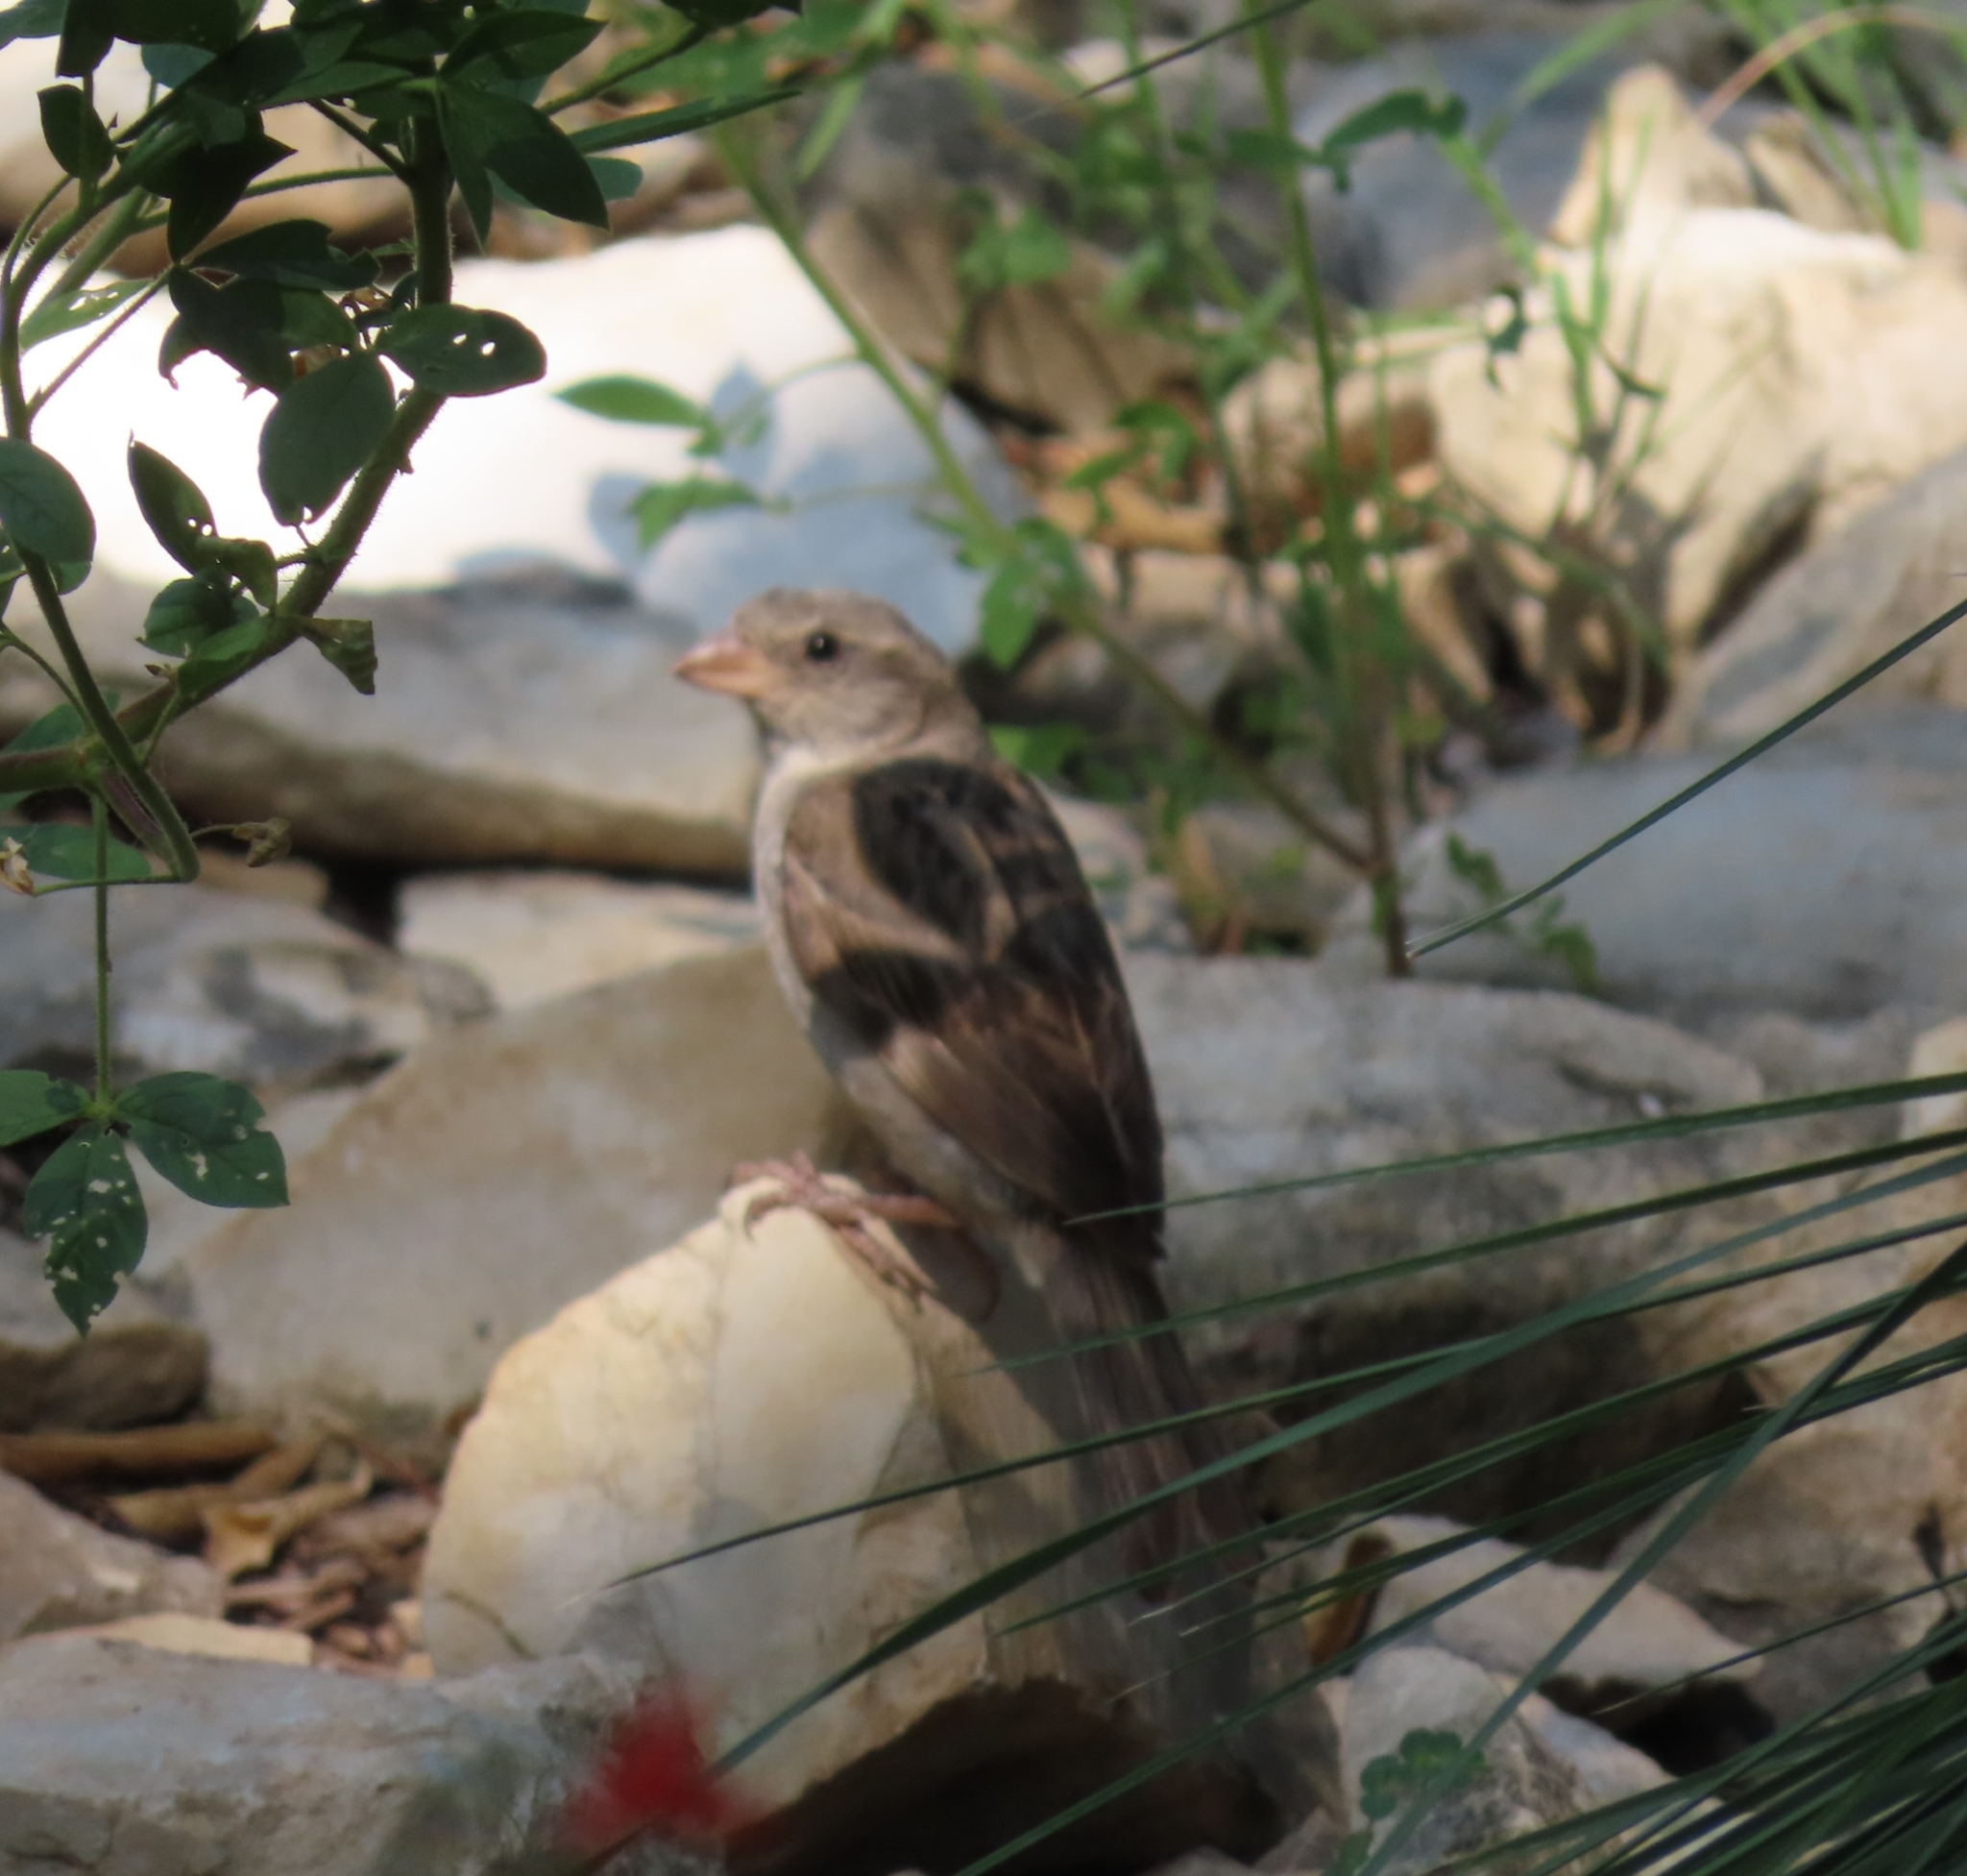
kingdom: Animalia
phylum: Chordata
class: Aves
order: Passeriformes
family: Passeridae
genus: Passer
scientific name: Passer domesticus
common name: House sparrow
